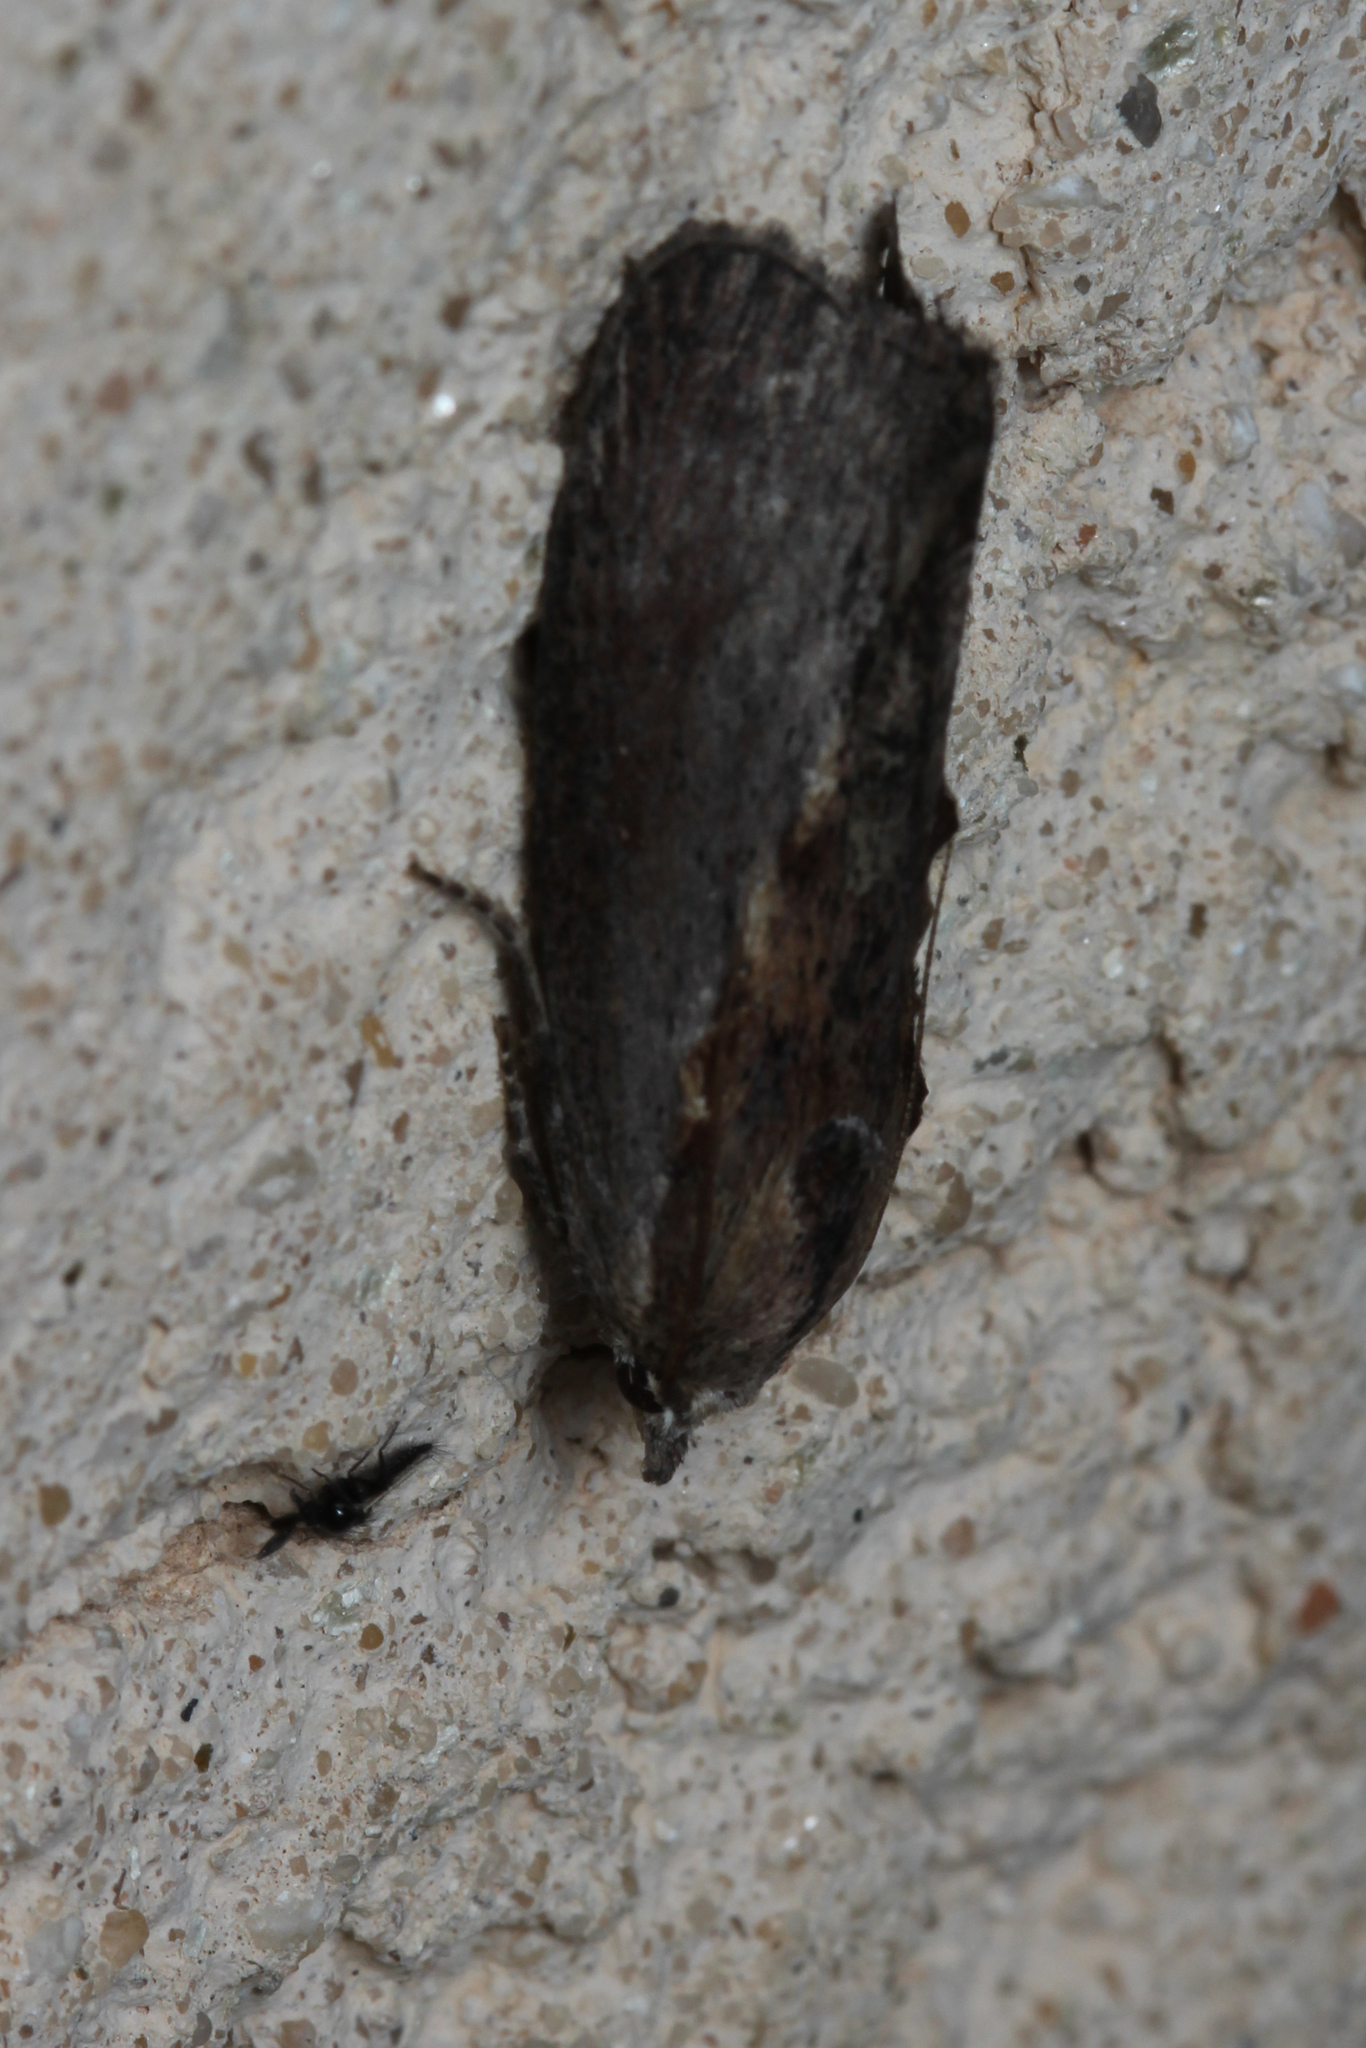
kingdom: Animalia
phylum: Arthropoda
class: Insecta
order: Lepidoptera
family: Pyralidae
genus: Galleria
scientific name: Galleria mellonella
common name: Greater wax moth
